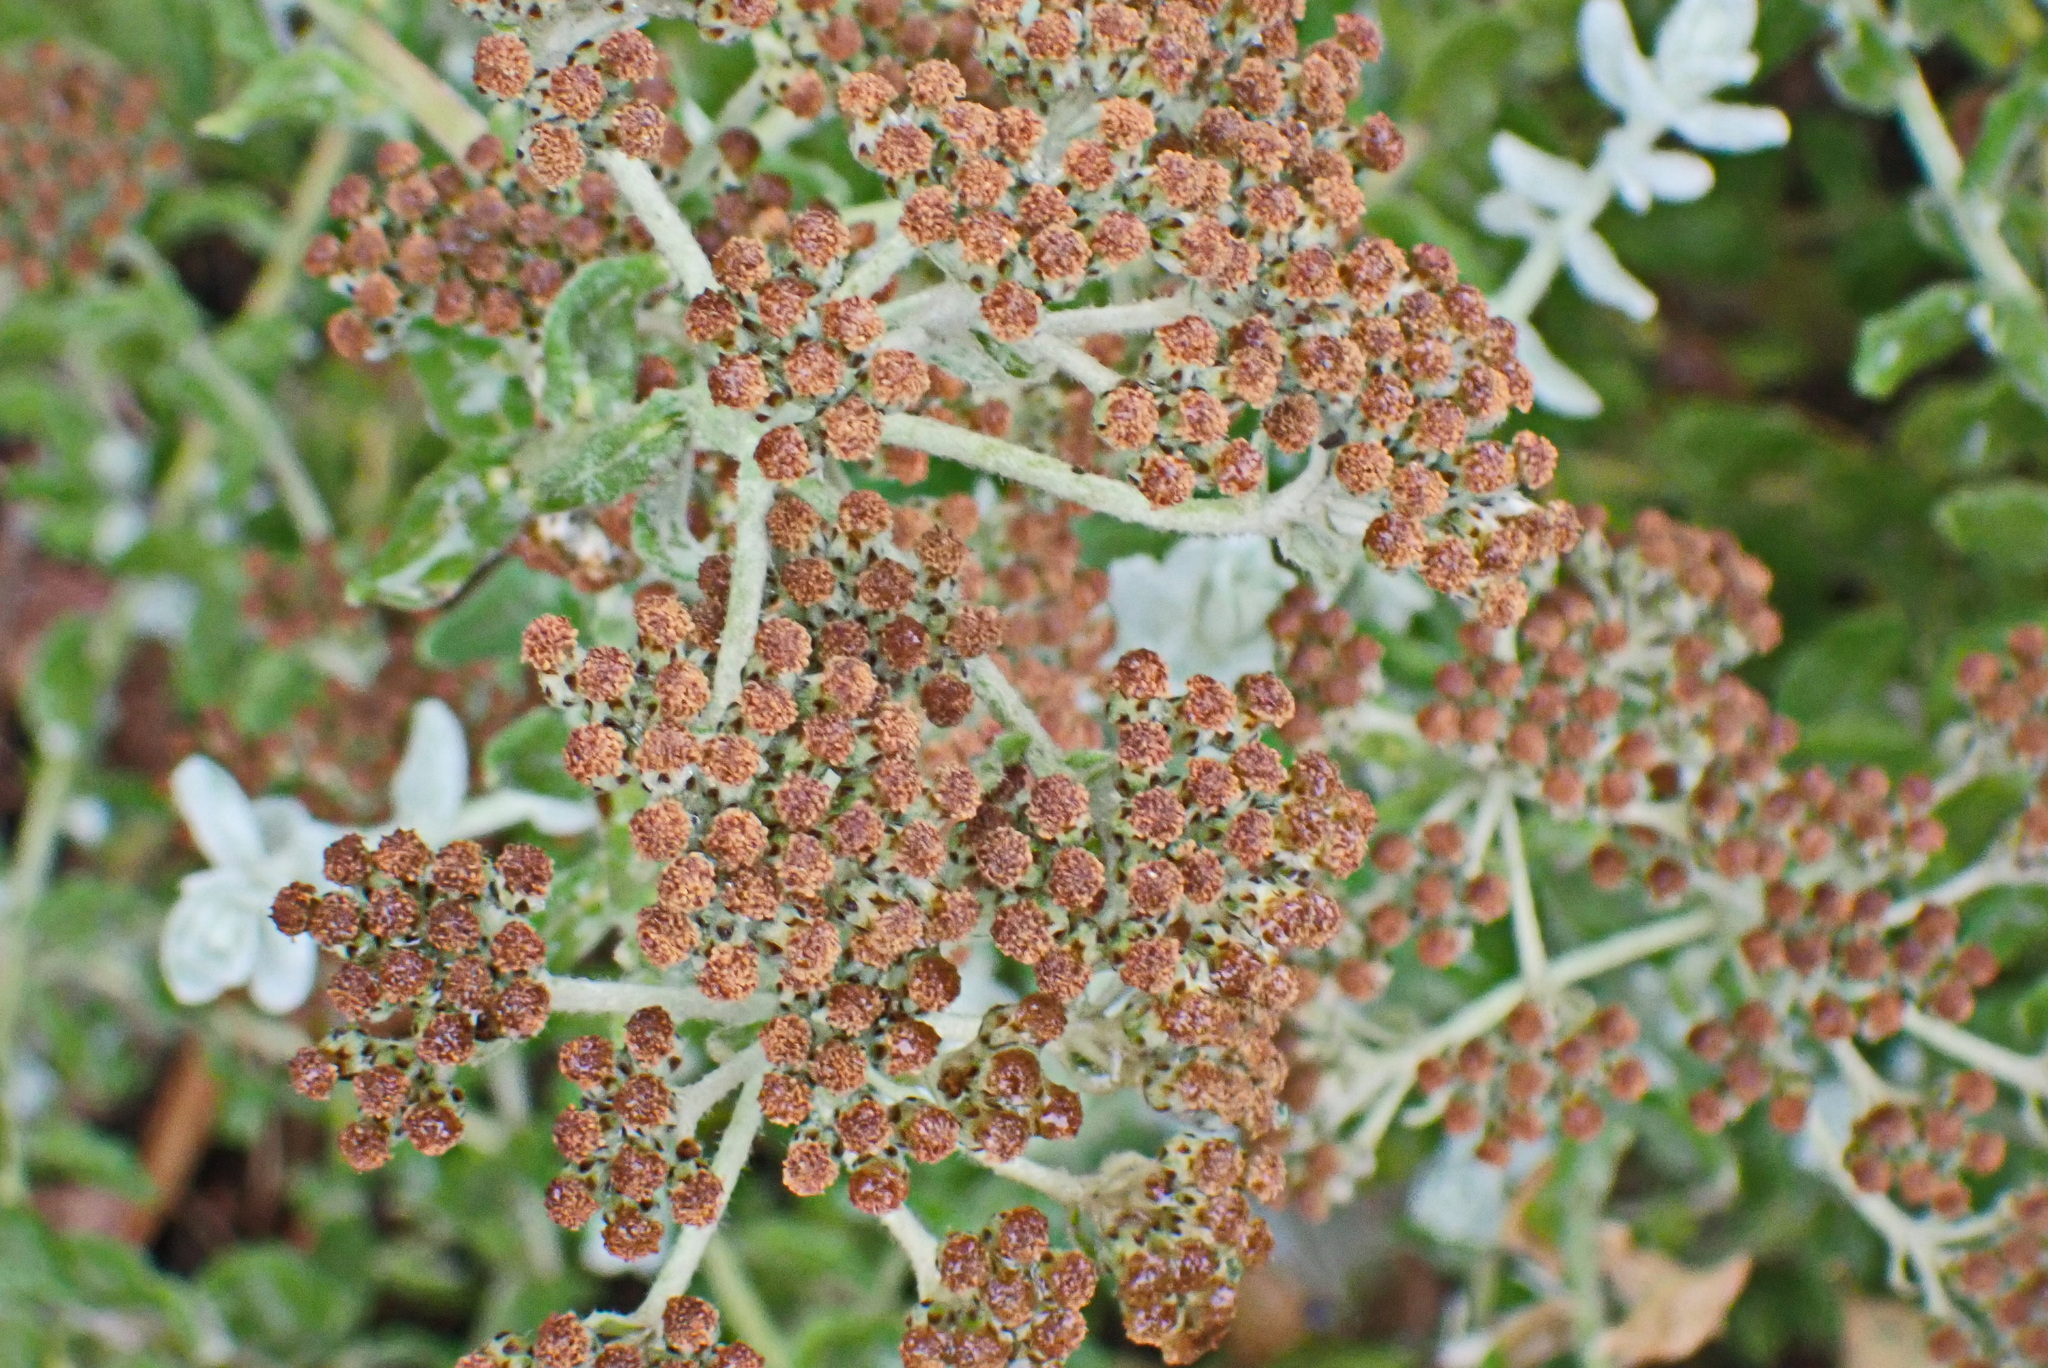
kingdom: Plantae
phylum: Tracheophyta
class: Magnoliopsida
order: Asterales
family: Asteraceae
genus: Helichrysum
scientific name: Helichrysum dasyanthum
